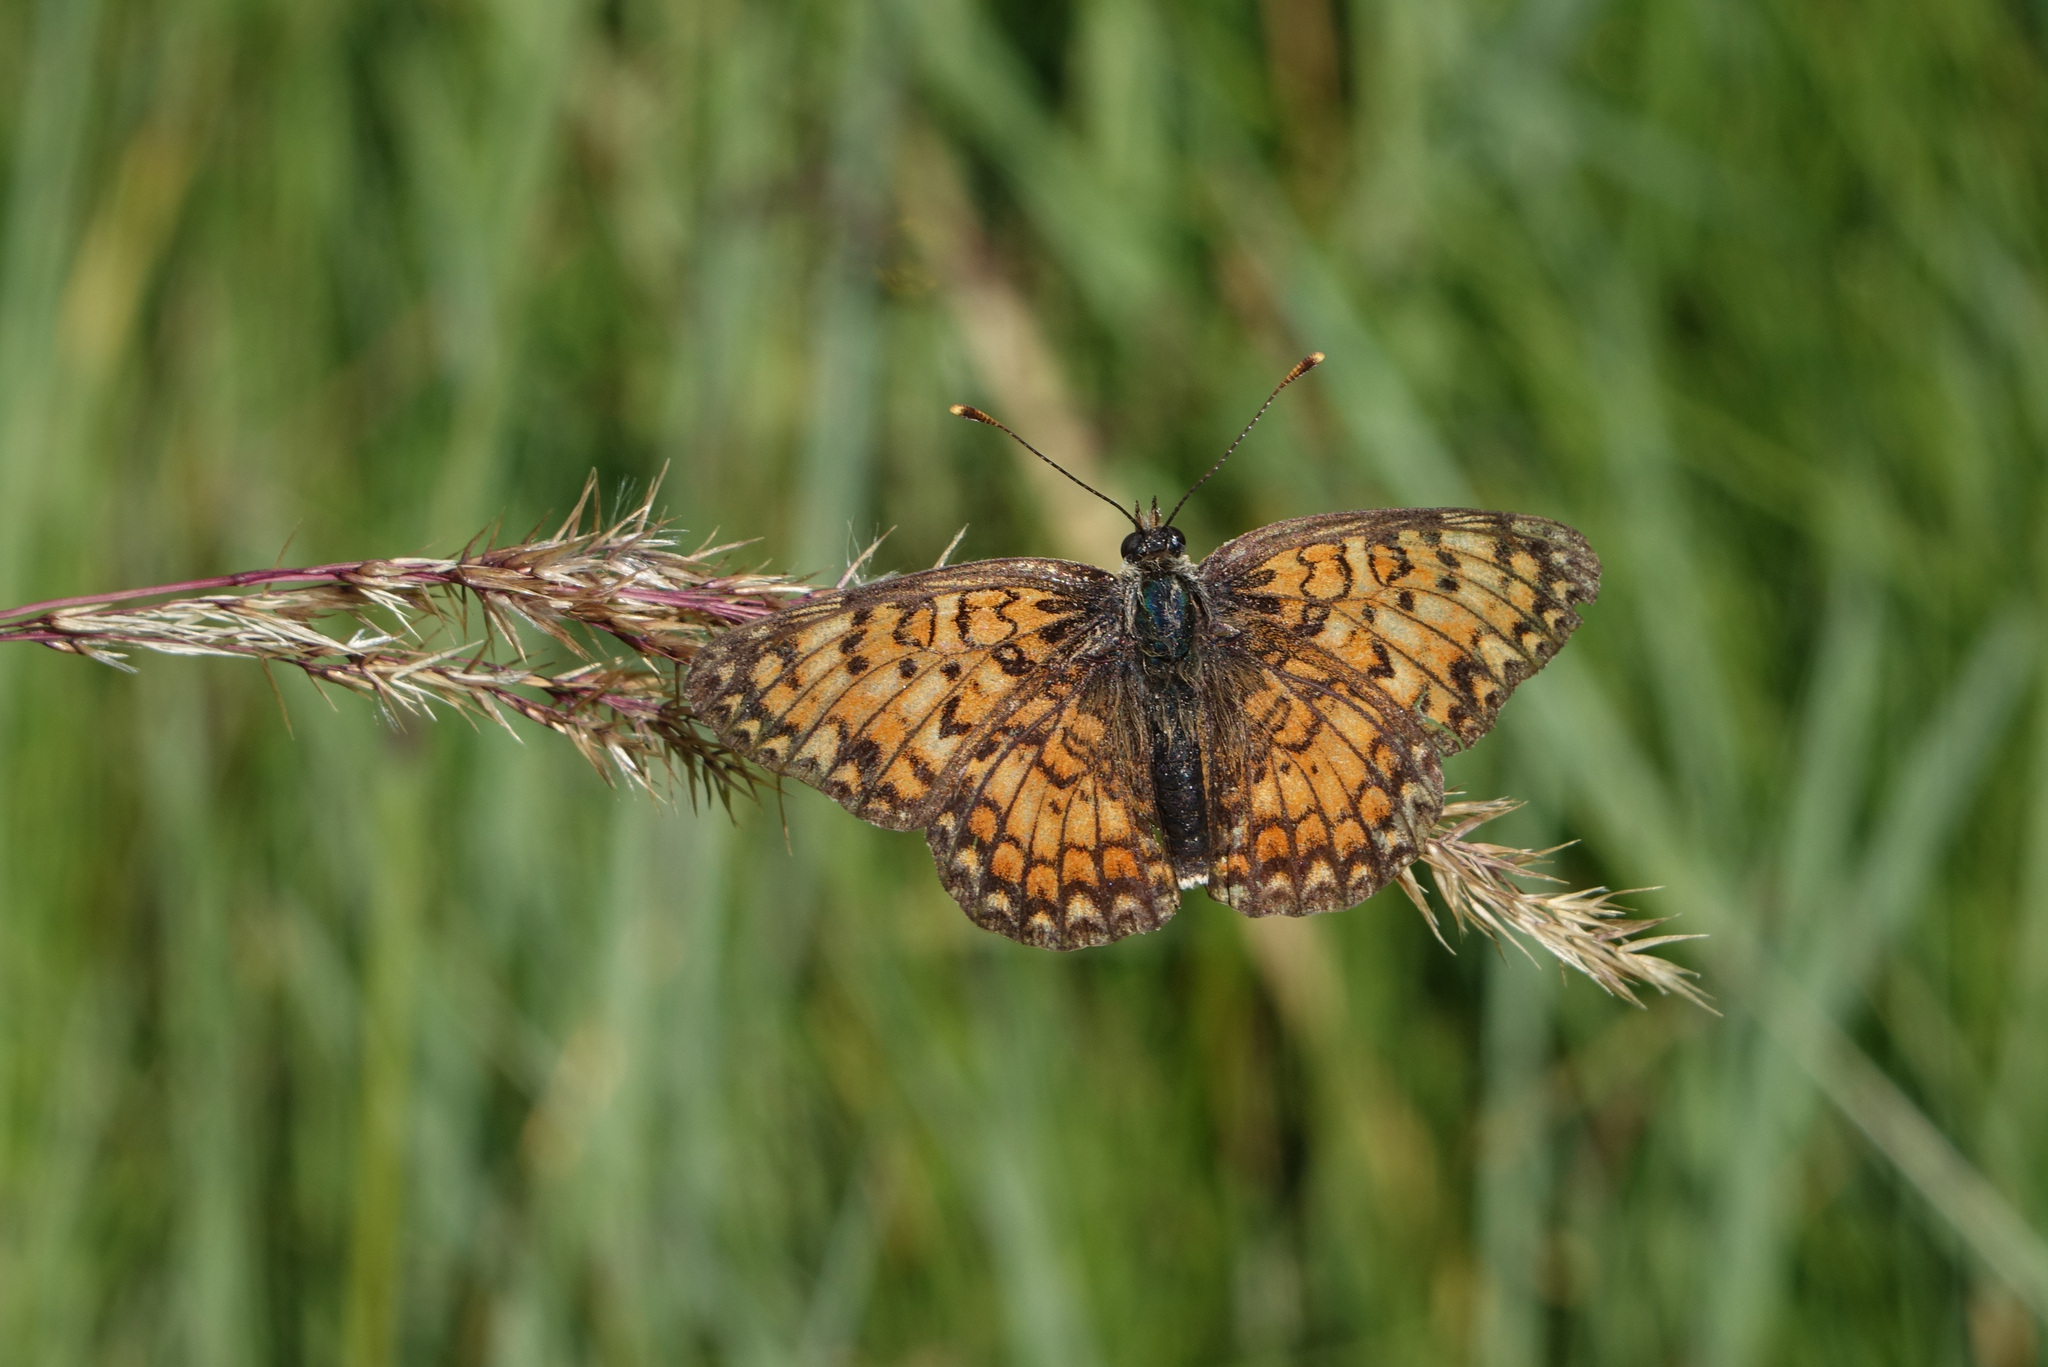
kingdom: Animalia
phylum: Arthropoda
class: Insecta
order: Lepidoptera
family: Nymphalidae
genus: Melitaea
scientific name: Melitaea phoebe
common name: Knapweed fritillary
